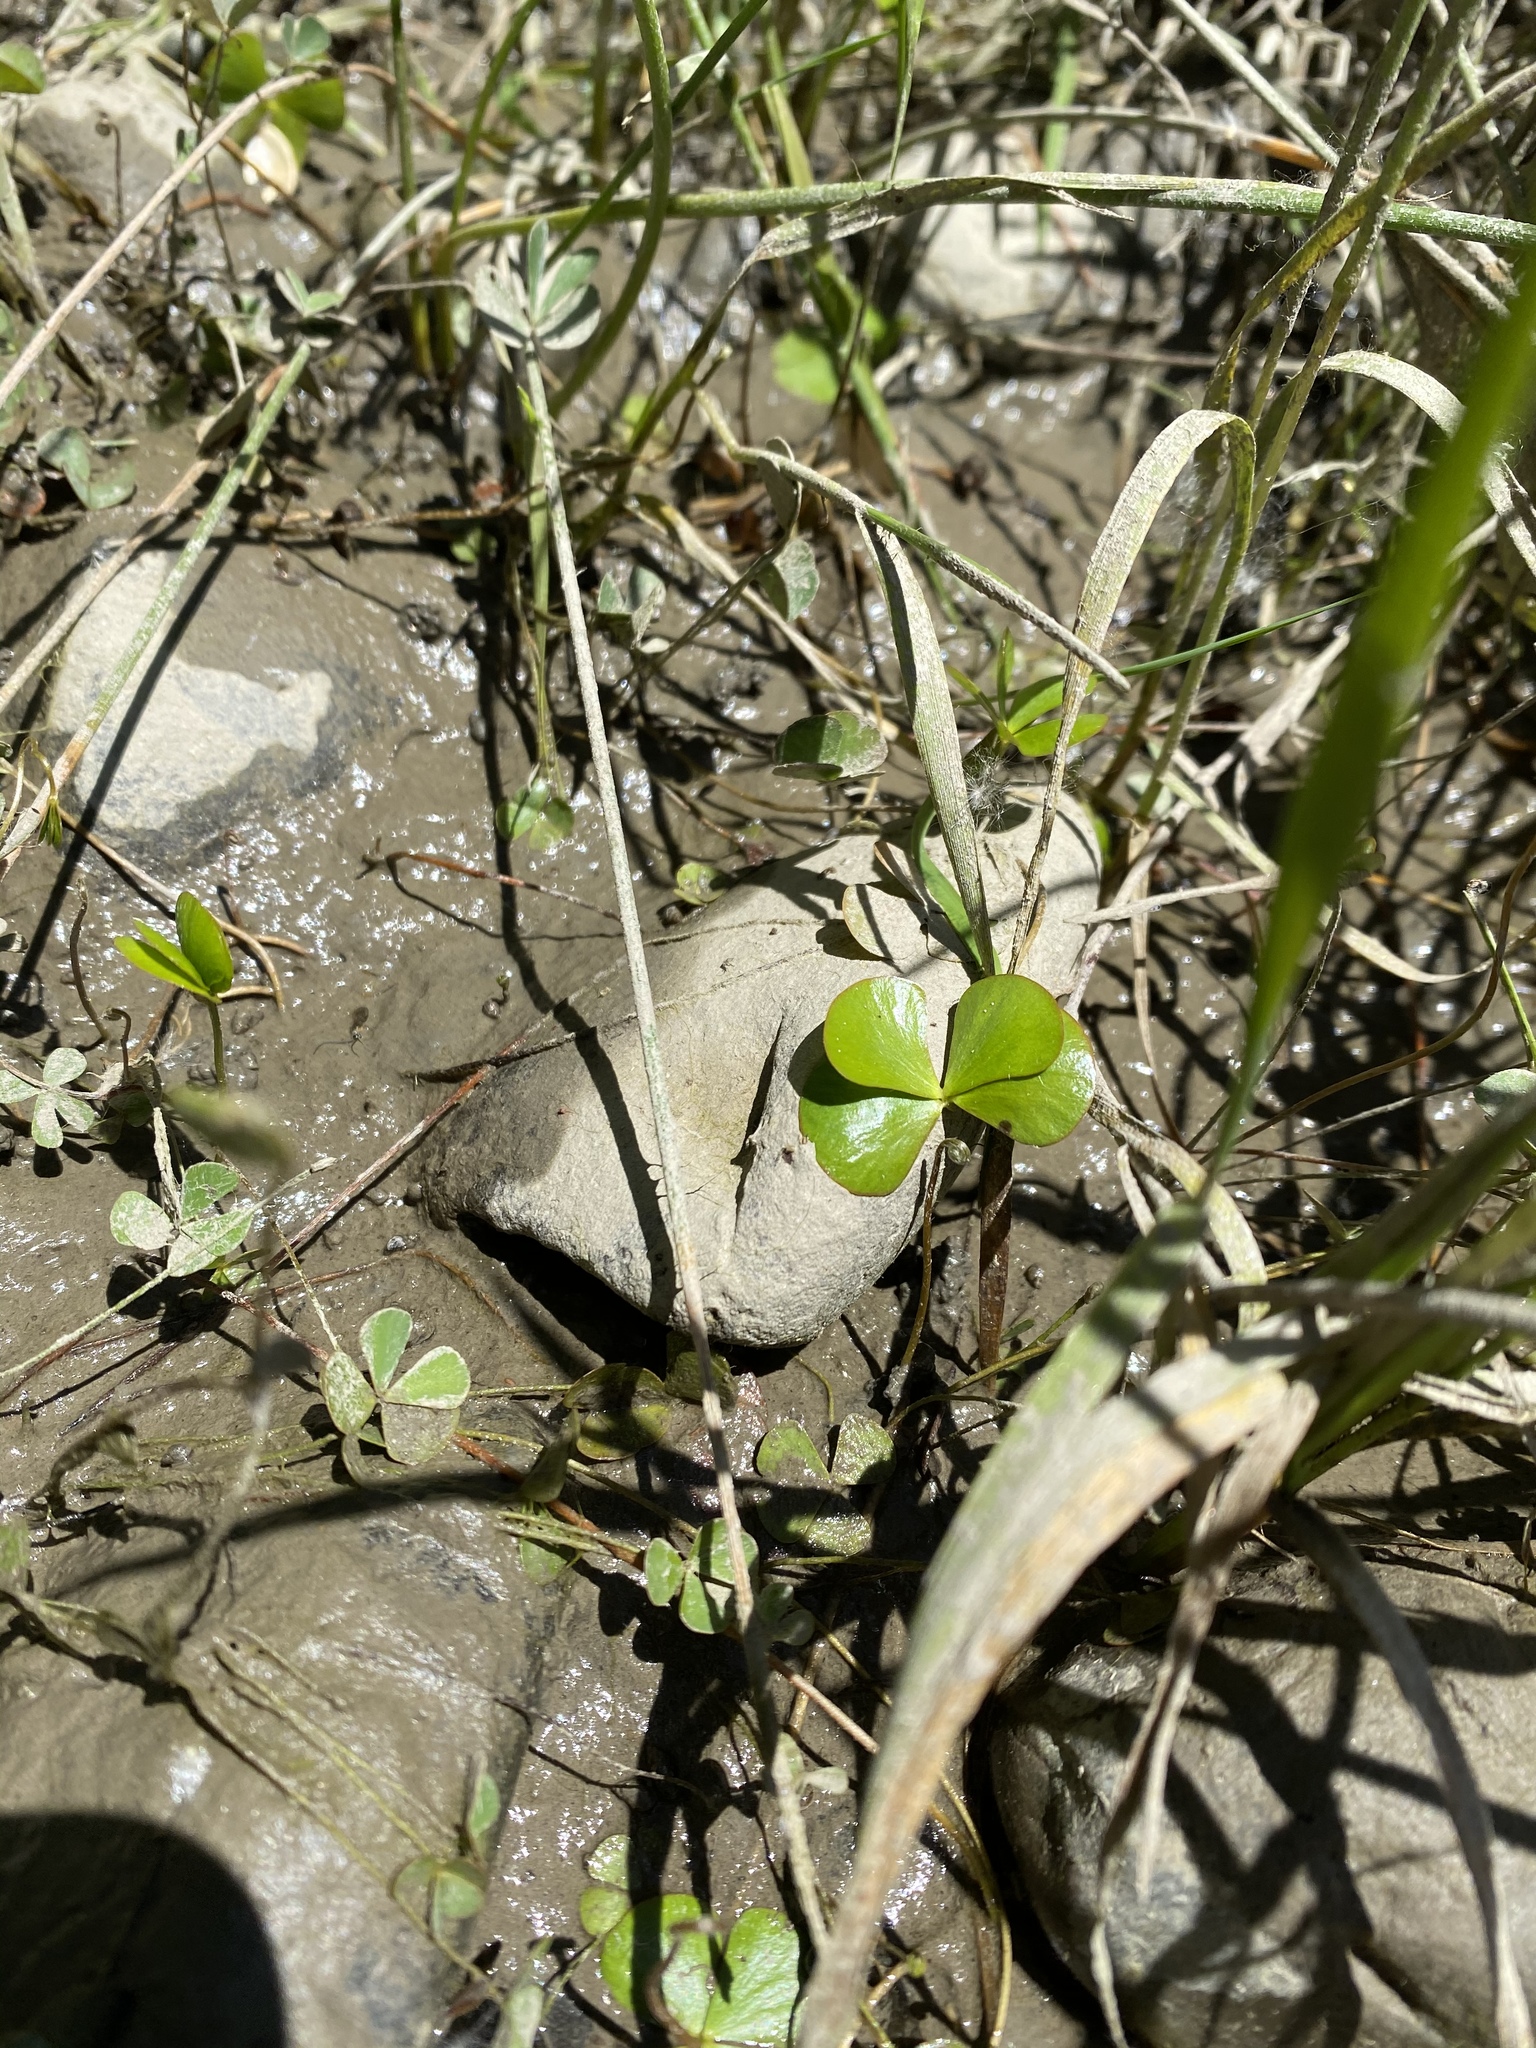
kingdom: Plantae
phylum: Tracheophyta
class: Polypodiopsida
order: Salviniales
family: Marsileaceae
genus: Marsilea
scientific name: Marsilea vestita
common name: Hooked-pepperwort
